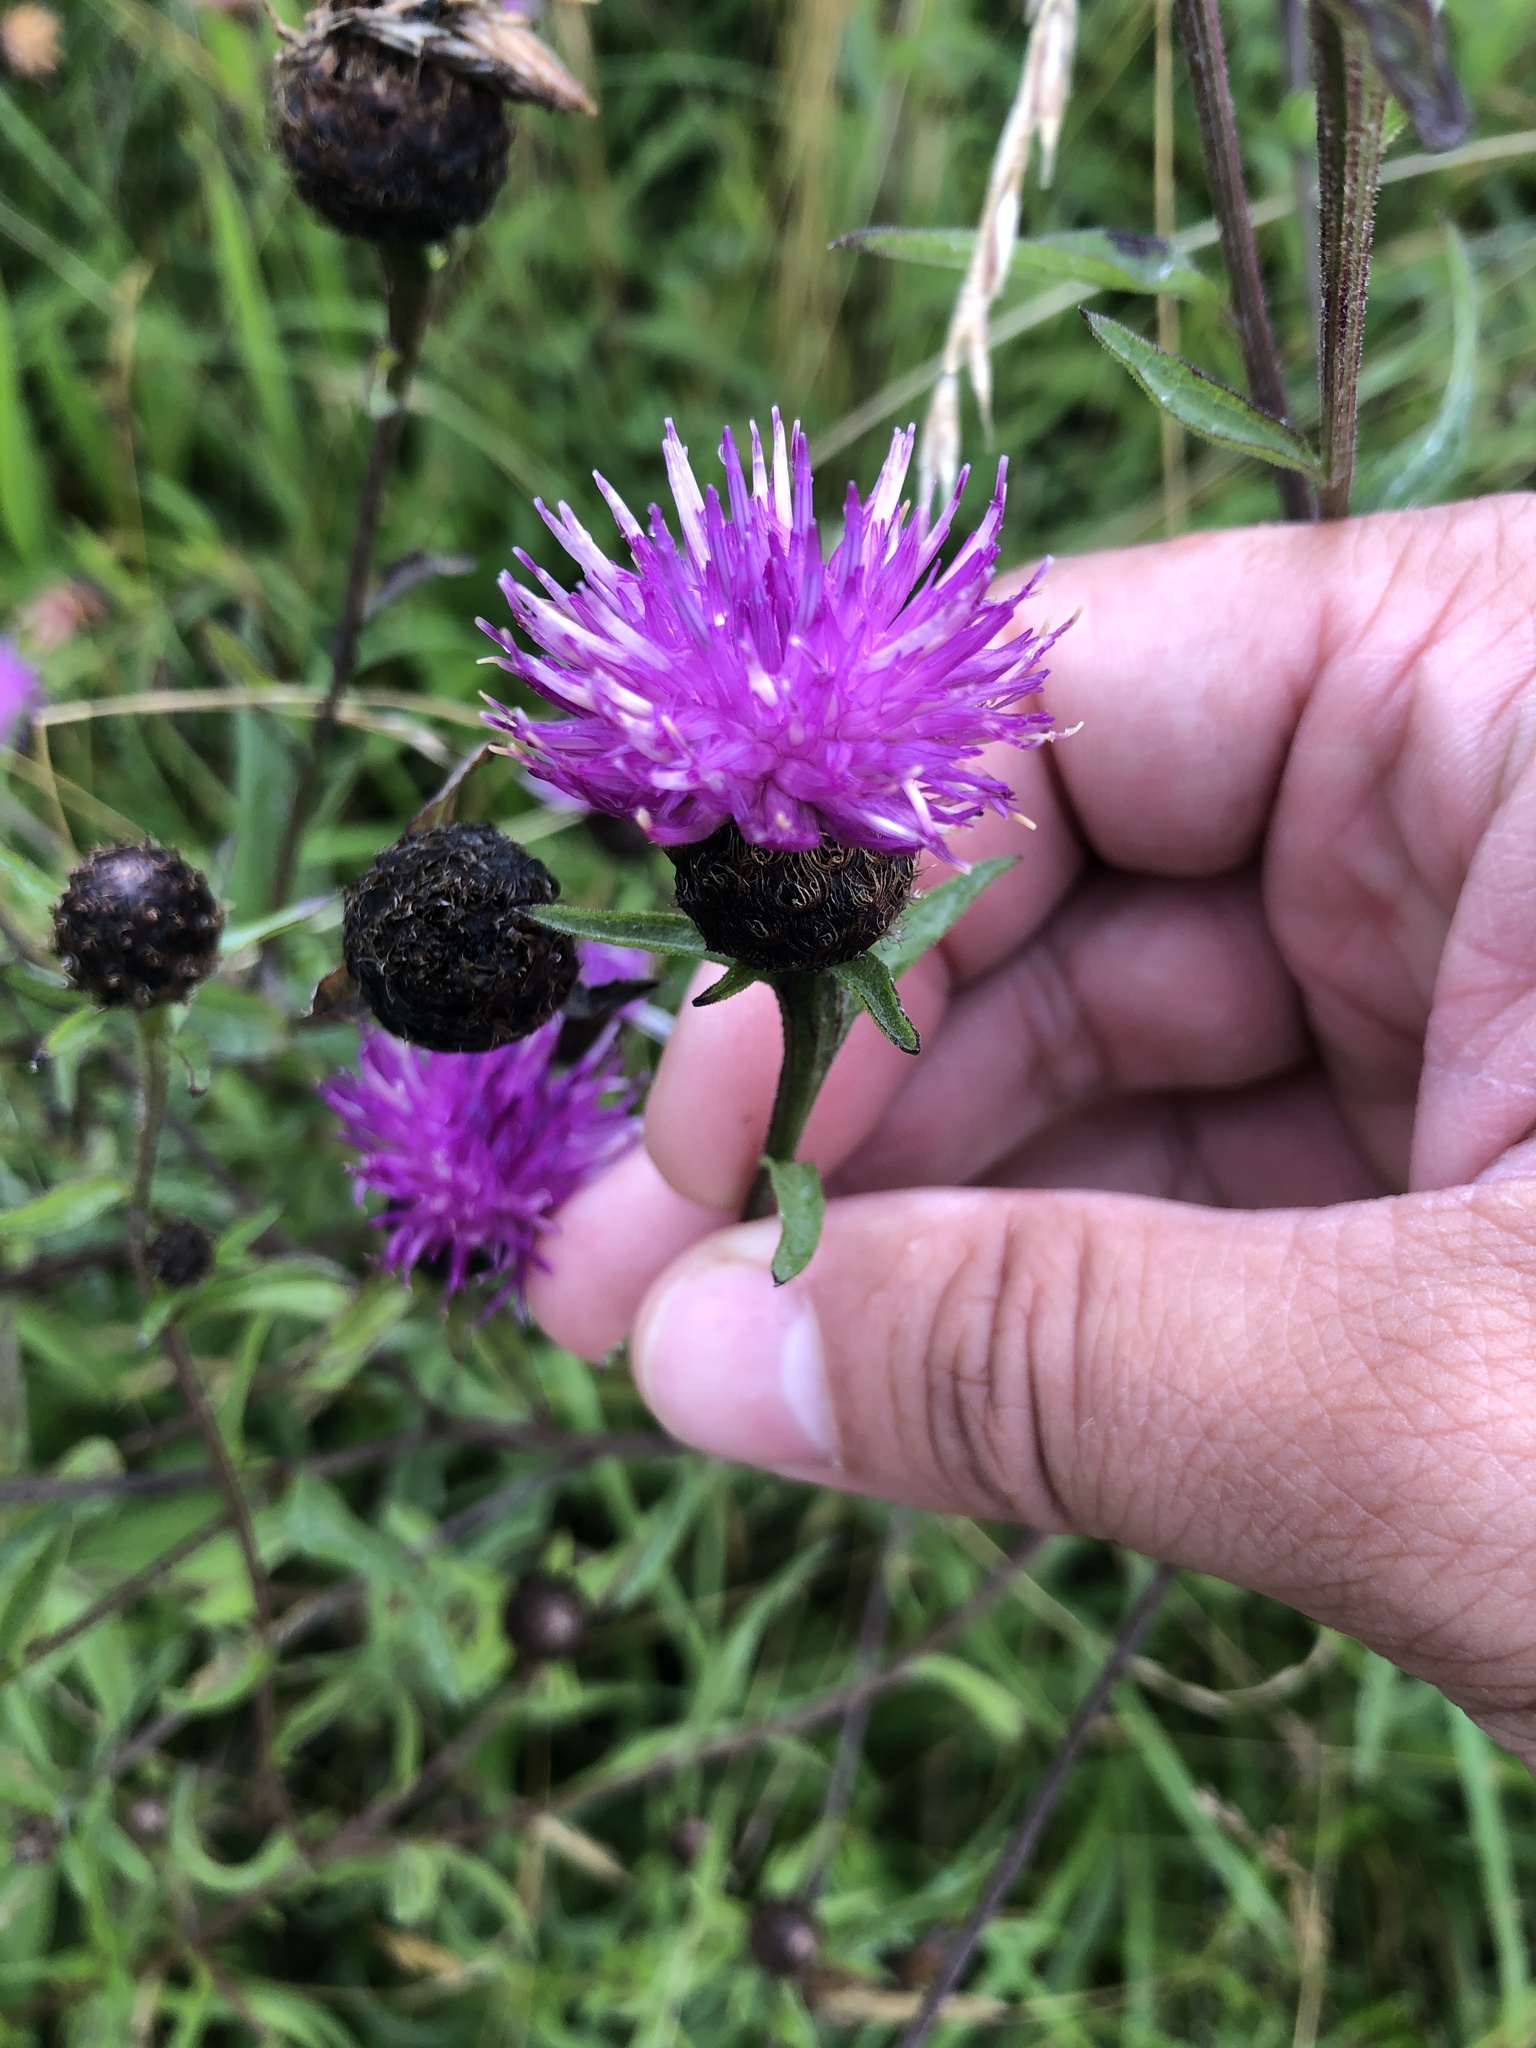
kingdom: Plantae
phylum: Tracheophyta
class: Magnoliopsida
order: Asterales
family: Asteraceae
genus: Centaurea
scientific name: Centaurea nigra
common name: Lesser knapweed
